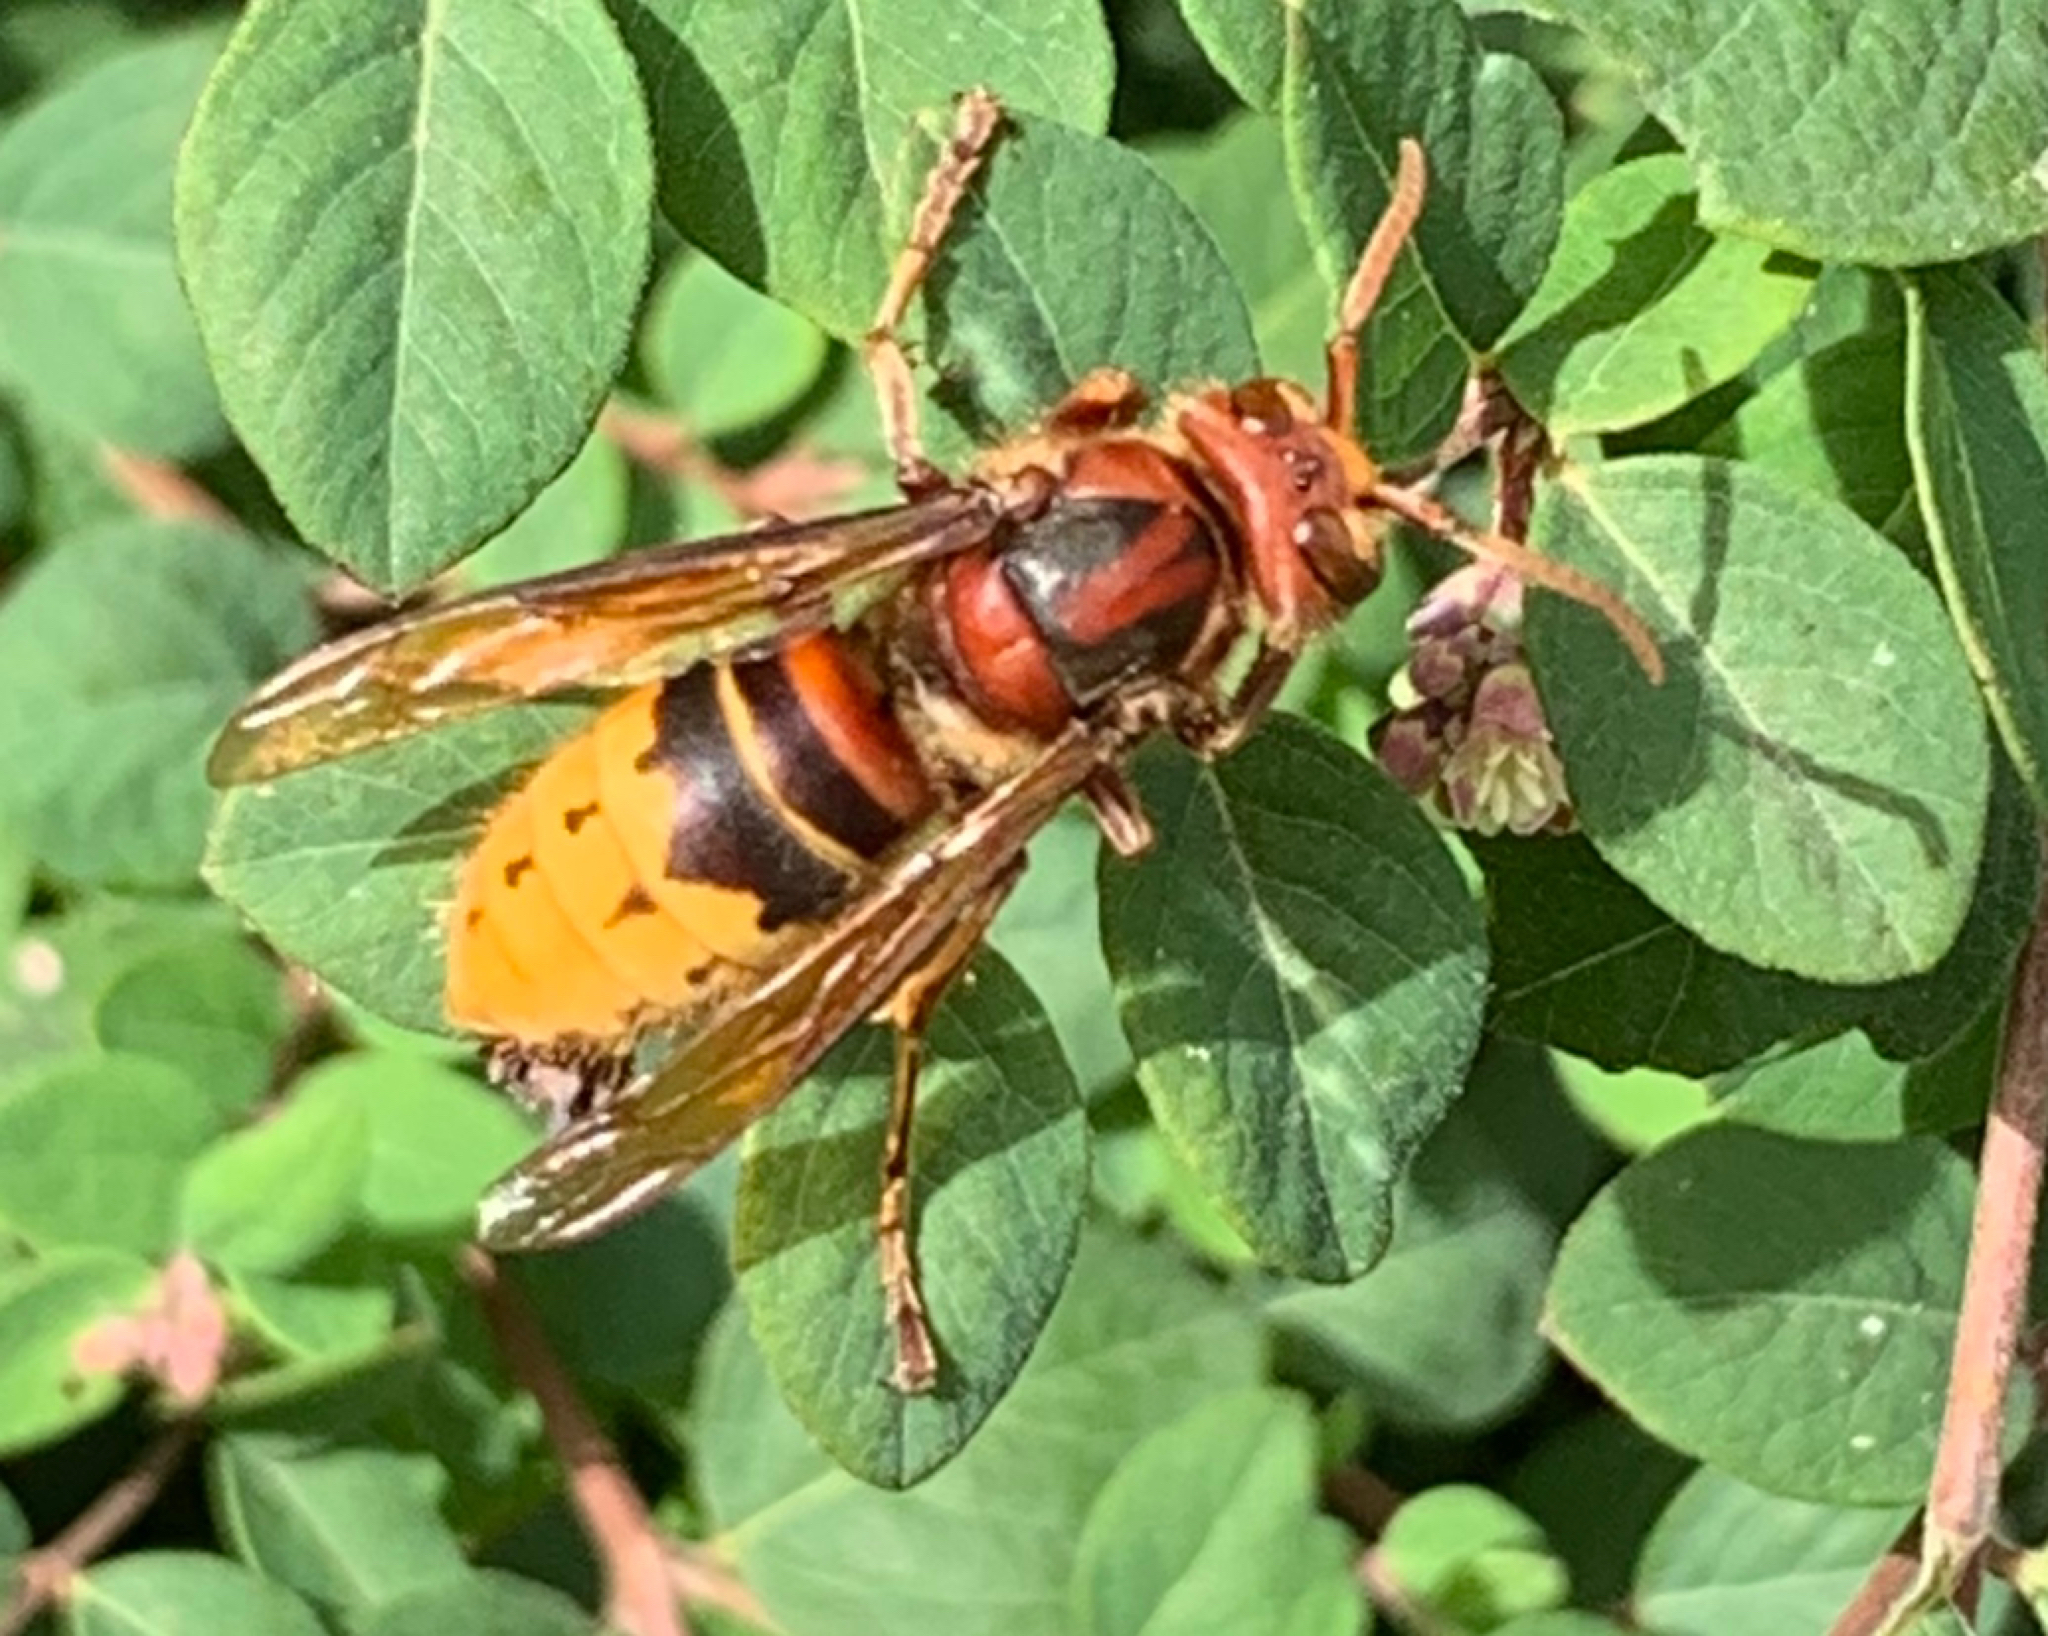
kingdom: Animalia
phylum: Arthropoda
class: Insecta
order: Hymenoptera
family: Vespidae
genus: Vespa
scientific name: Vespa crabro
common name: Hornet
